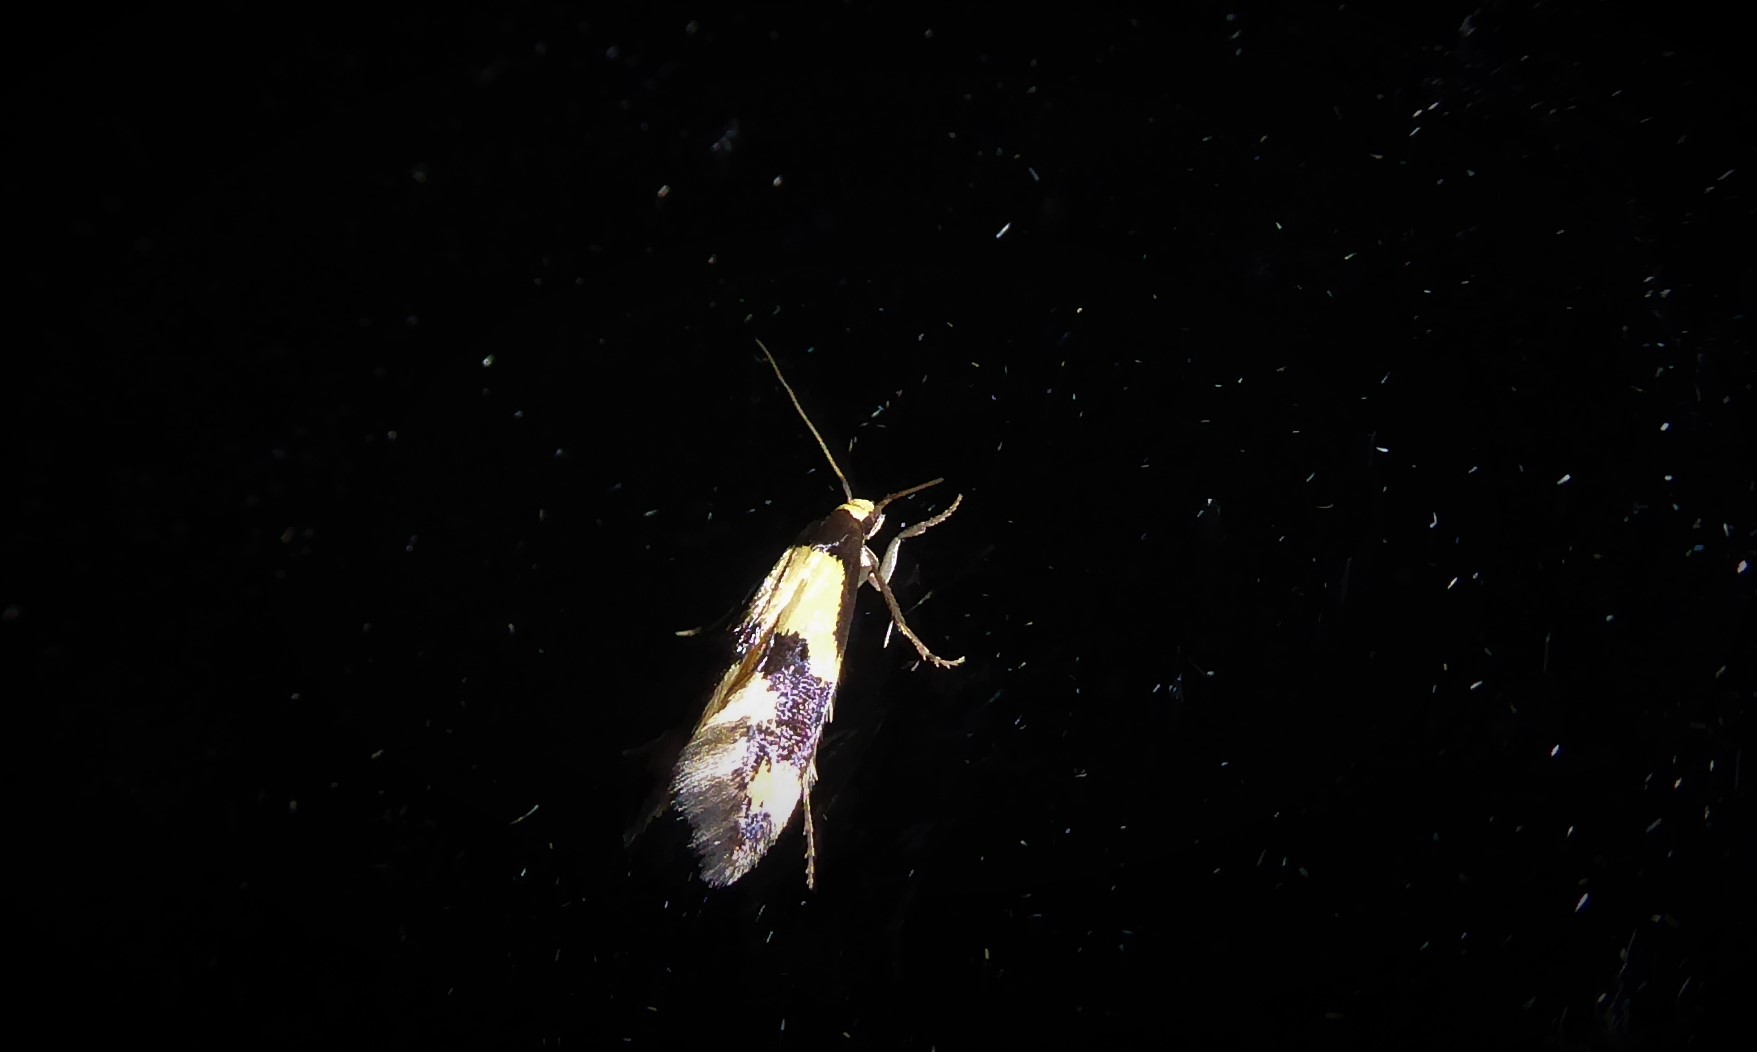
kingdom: Animalia
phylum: Arthropoda
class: Insecta
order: Lepidoptera
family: Tineidae
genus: Opogona
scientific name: Opogona comptella
